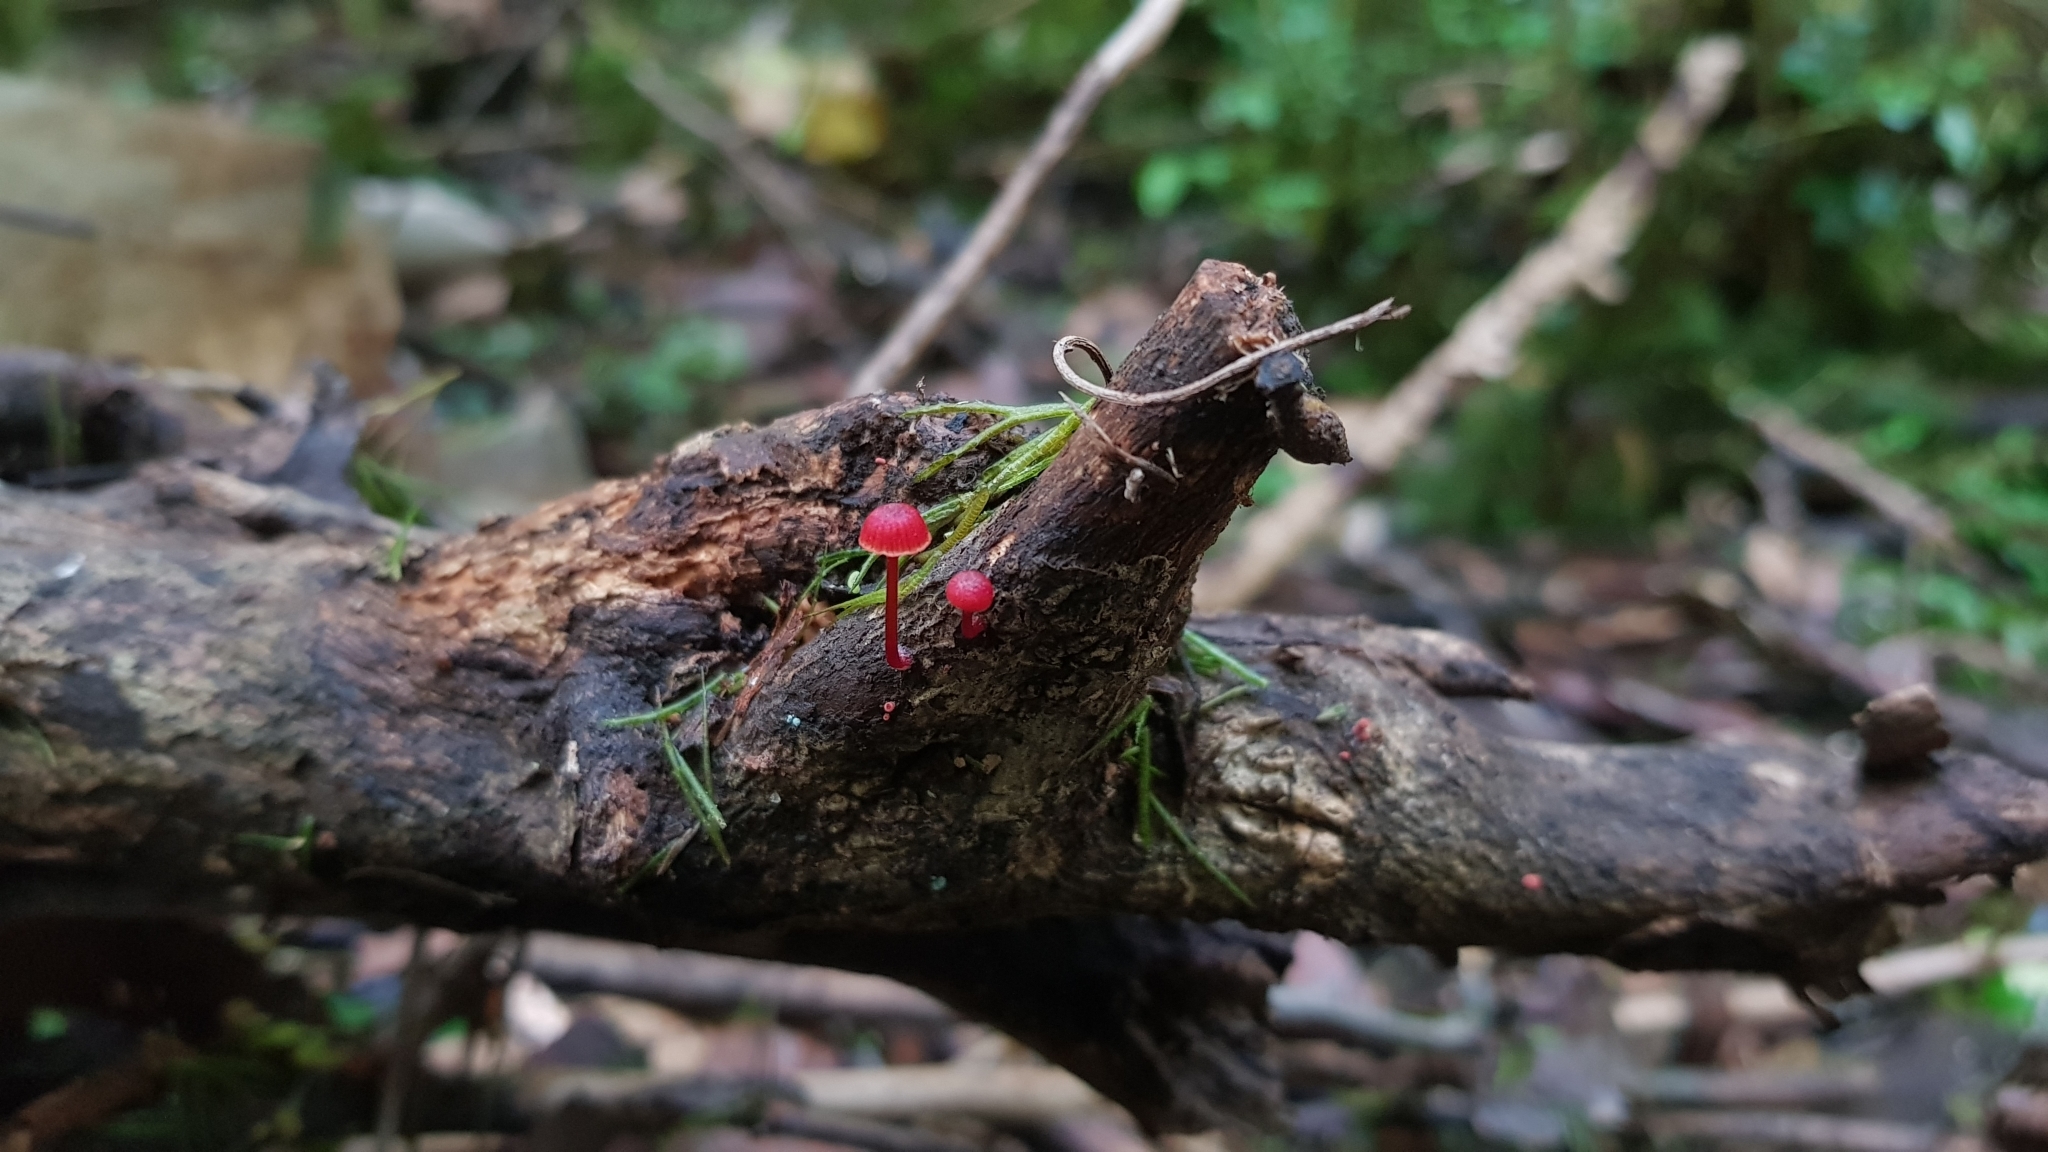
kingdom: Fungi
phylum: Basidiomycota
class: Agaricomycetes
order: Agaricales
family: Mycenaceae
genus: Cruentomycena
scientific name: Cruentomycena viscidocruenta
